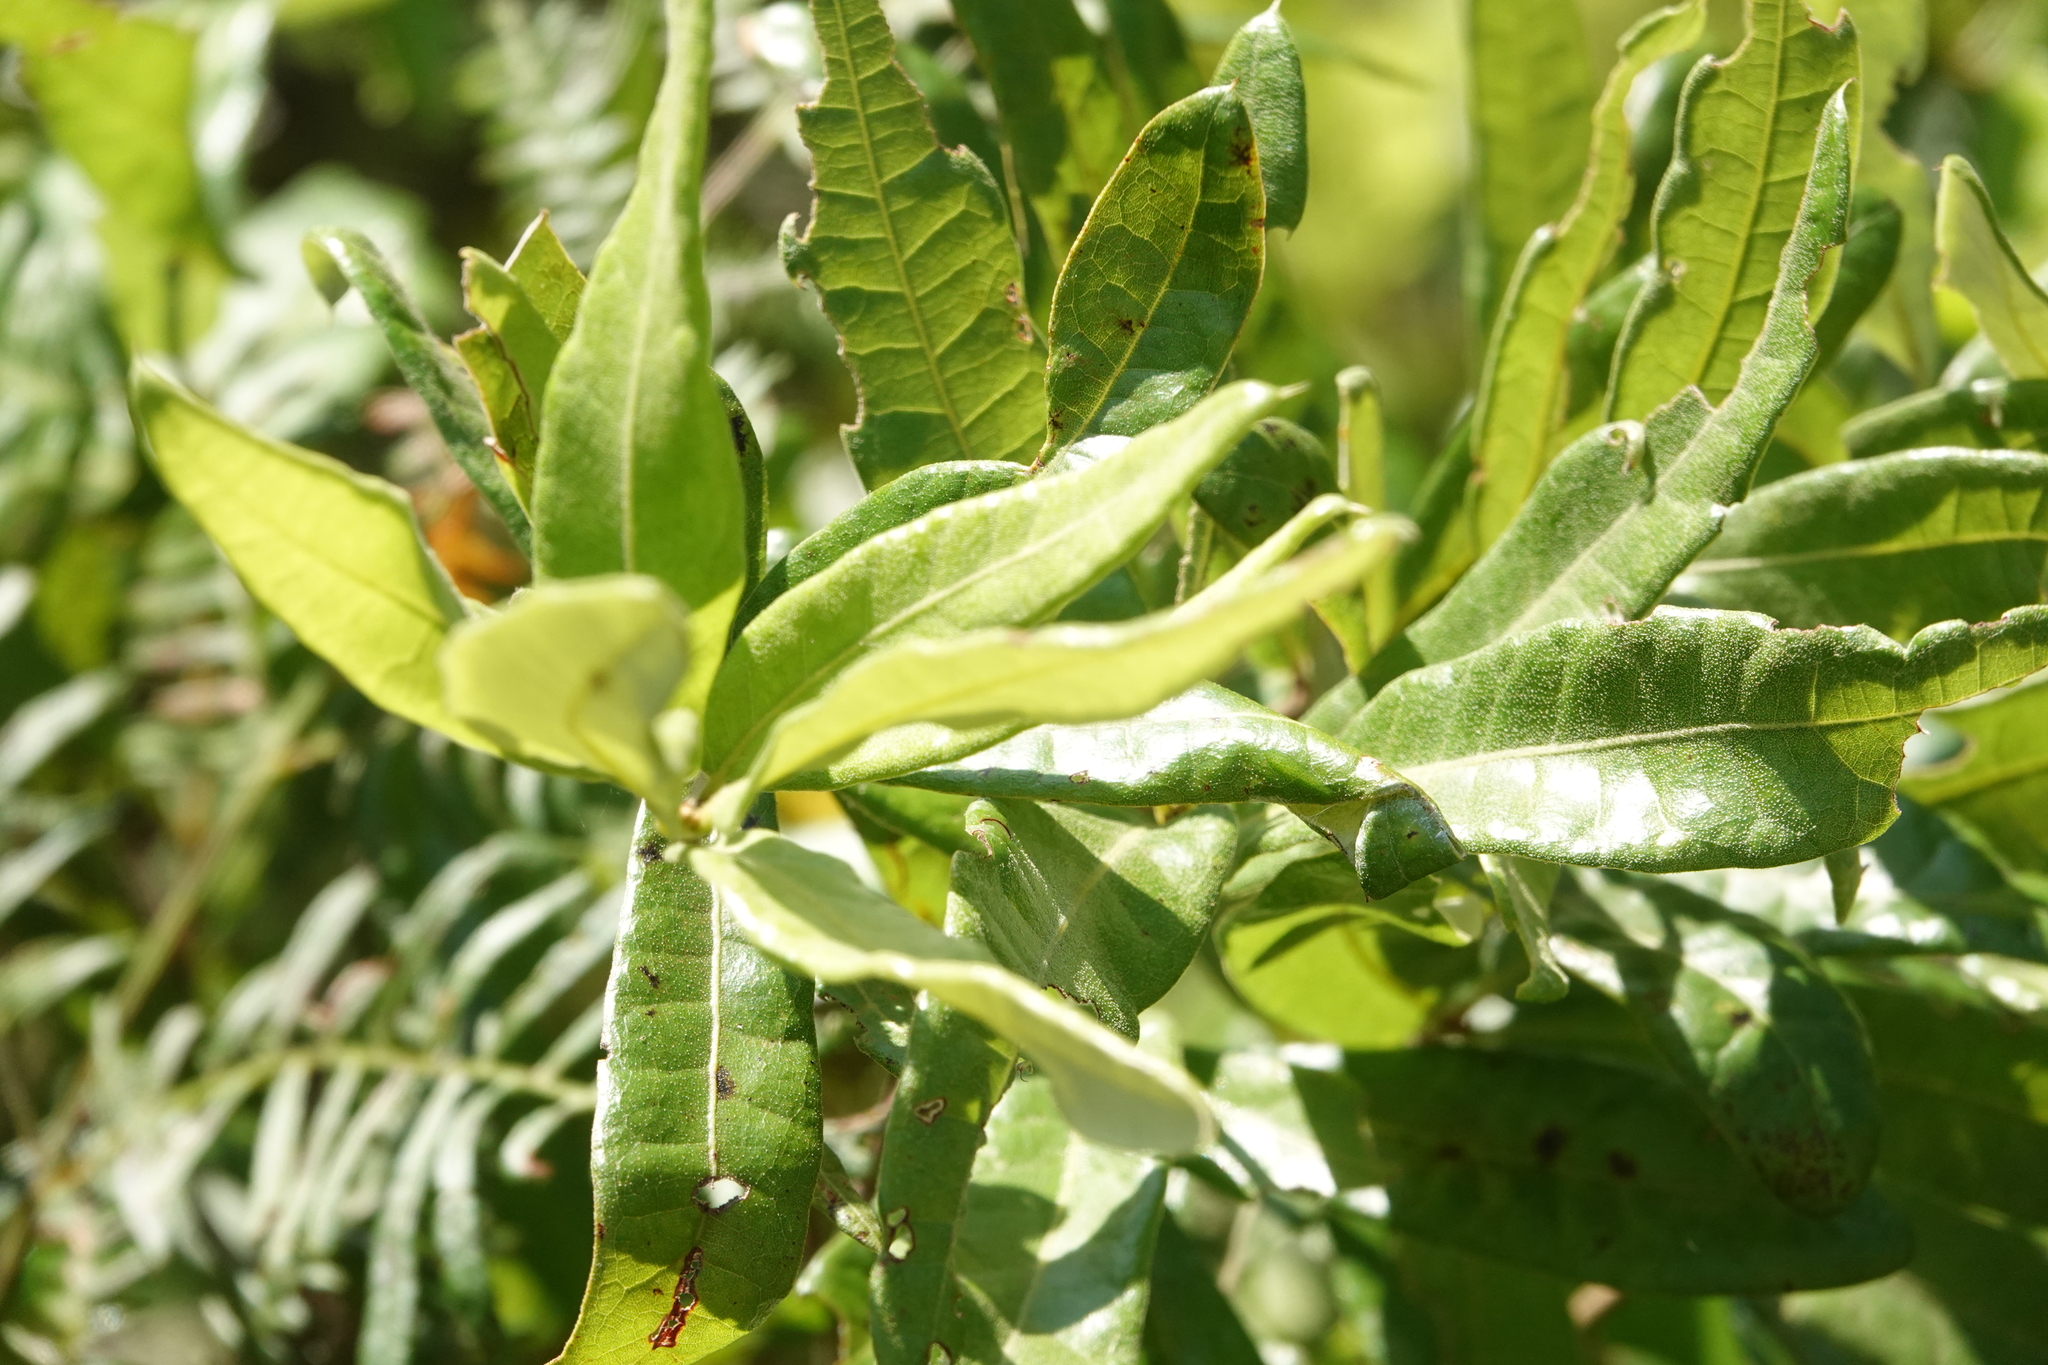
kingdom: Plantae
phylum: Tracheophyta
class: Magnoliopsida
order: Fagales
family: Fagaceae
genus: Quercus
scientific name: Quercus pumila
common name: Runner oak
